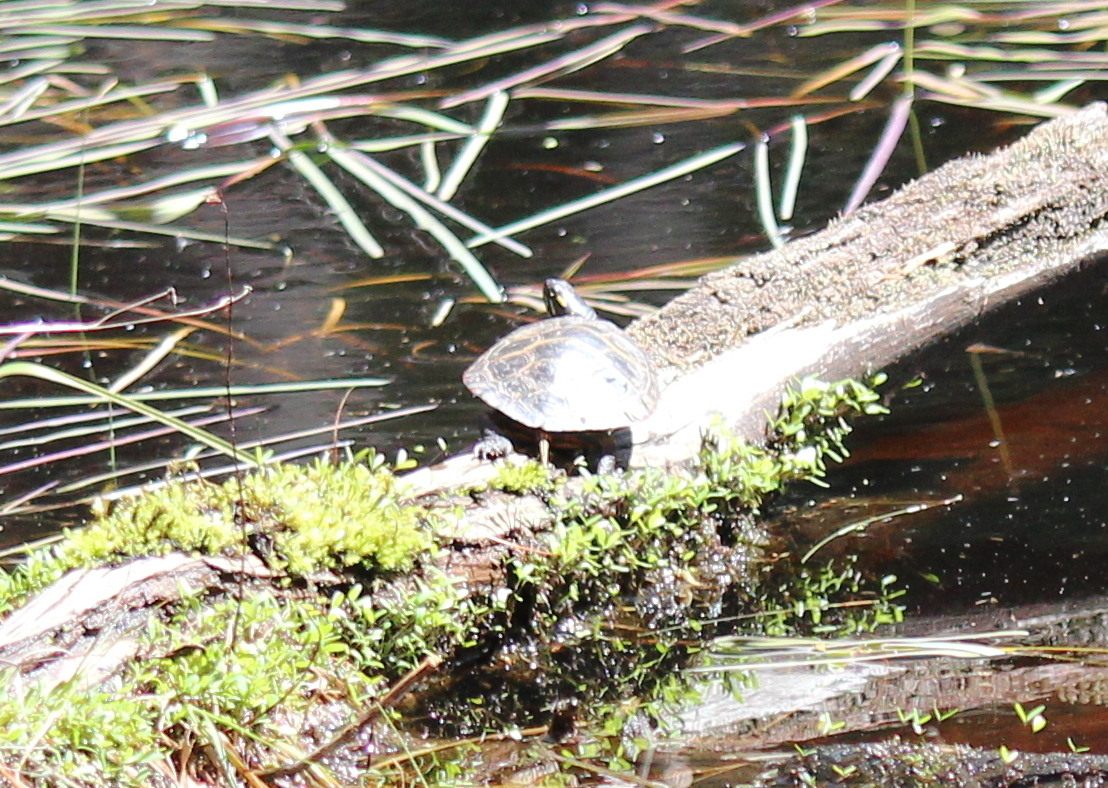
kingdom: Animalia
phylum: Chordata
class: Testudines
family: Emydidae
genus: Chrysemys
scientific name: Chrysemys picta
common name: Painted turtle
